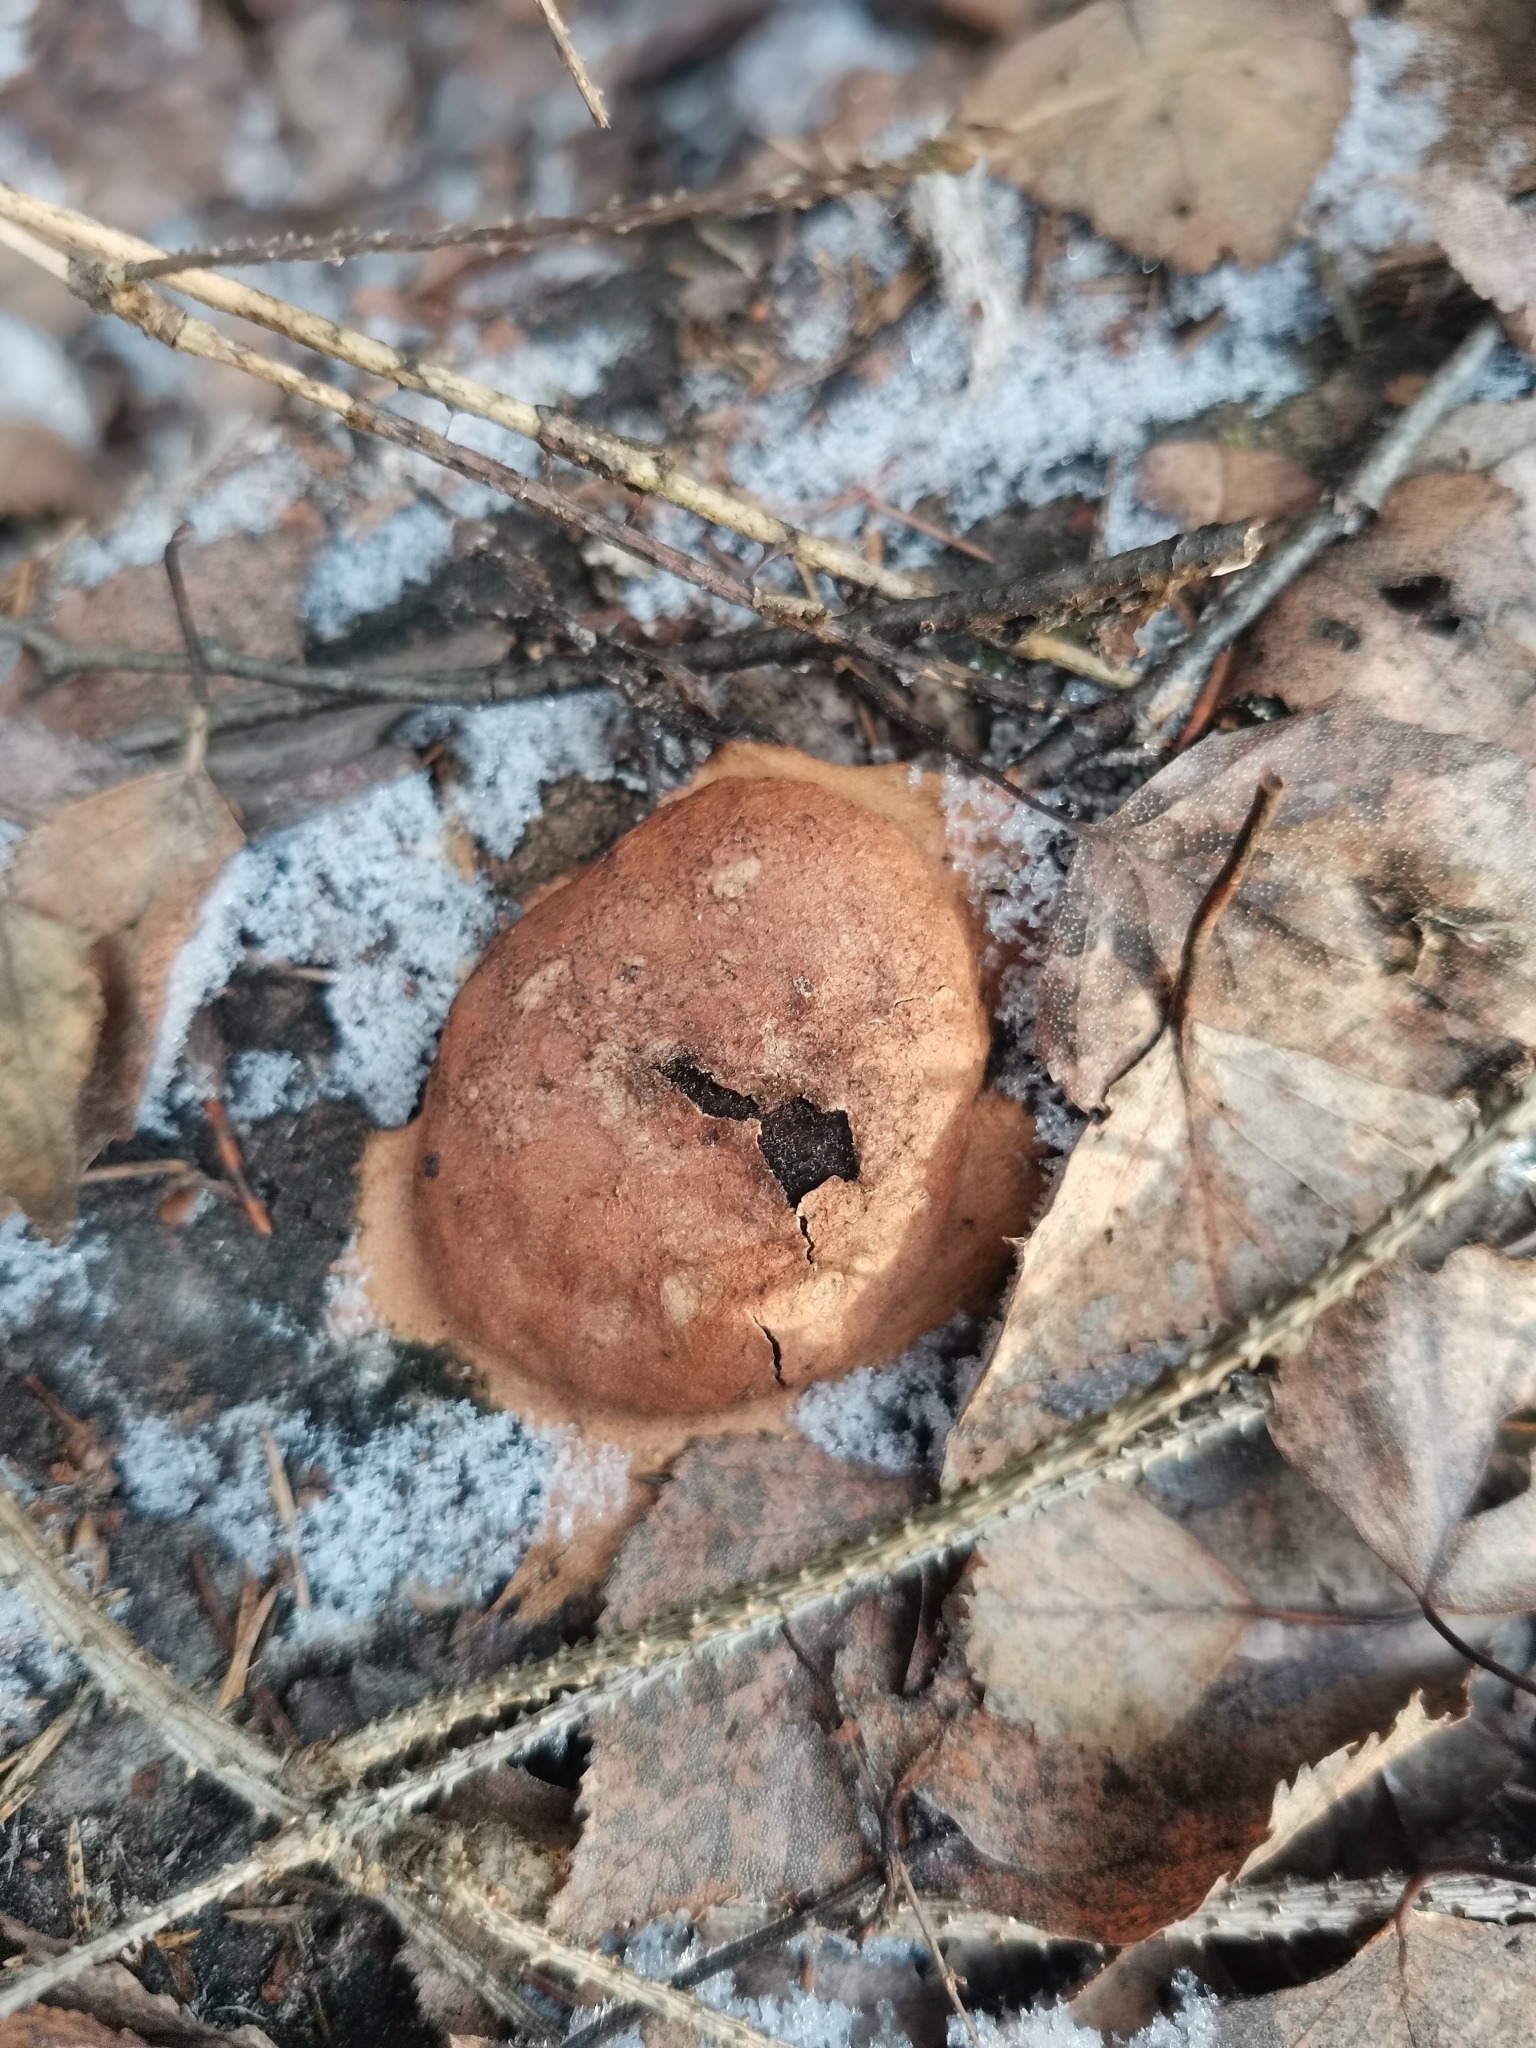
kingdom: Protozoa
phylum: Mycetozoa
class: Myxomycetes
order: Physarales
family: Physaraceae
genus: Fuligo
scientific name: Fuligo leviderma
